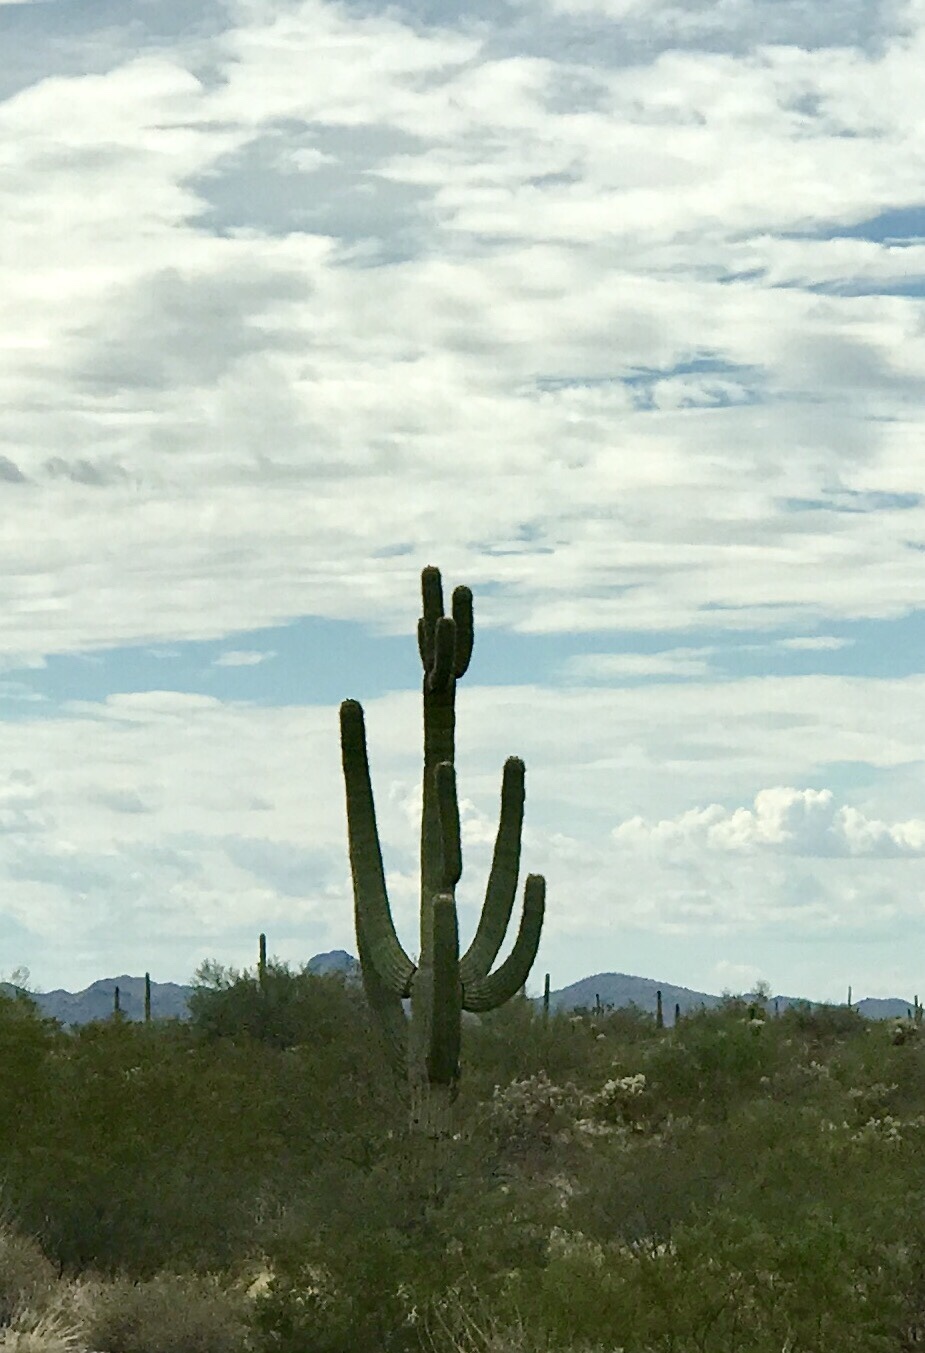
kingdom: Plantae
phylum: Tracheophyta
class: Magnoliopsida
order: Caryophyllales
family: Cactaceae
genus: Carnegiea
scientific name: Carnegiea gigantea
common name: Saguaro
